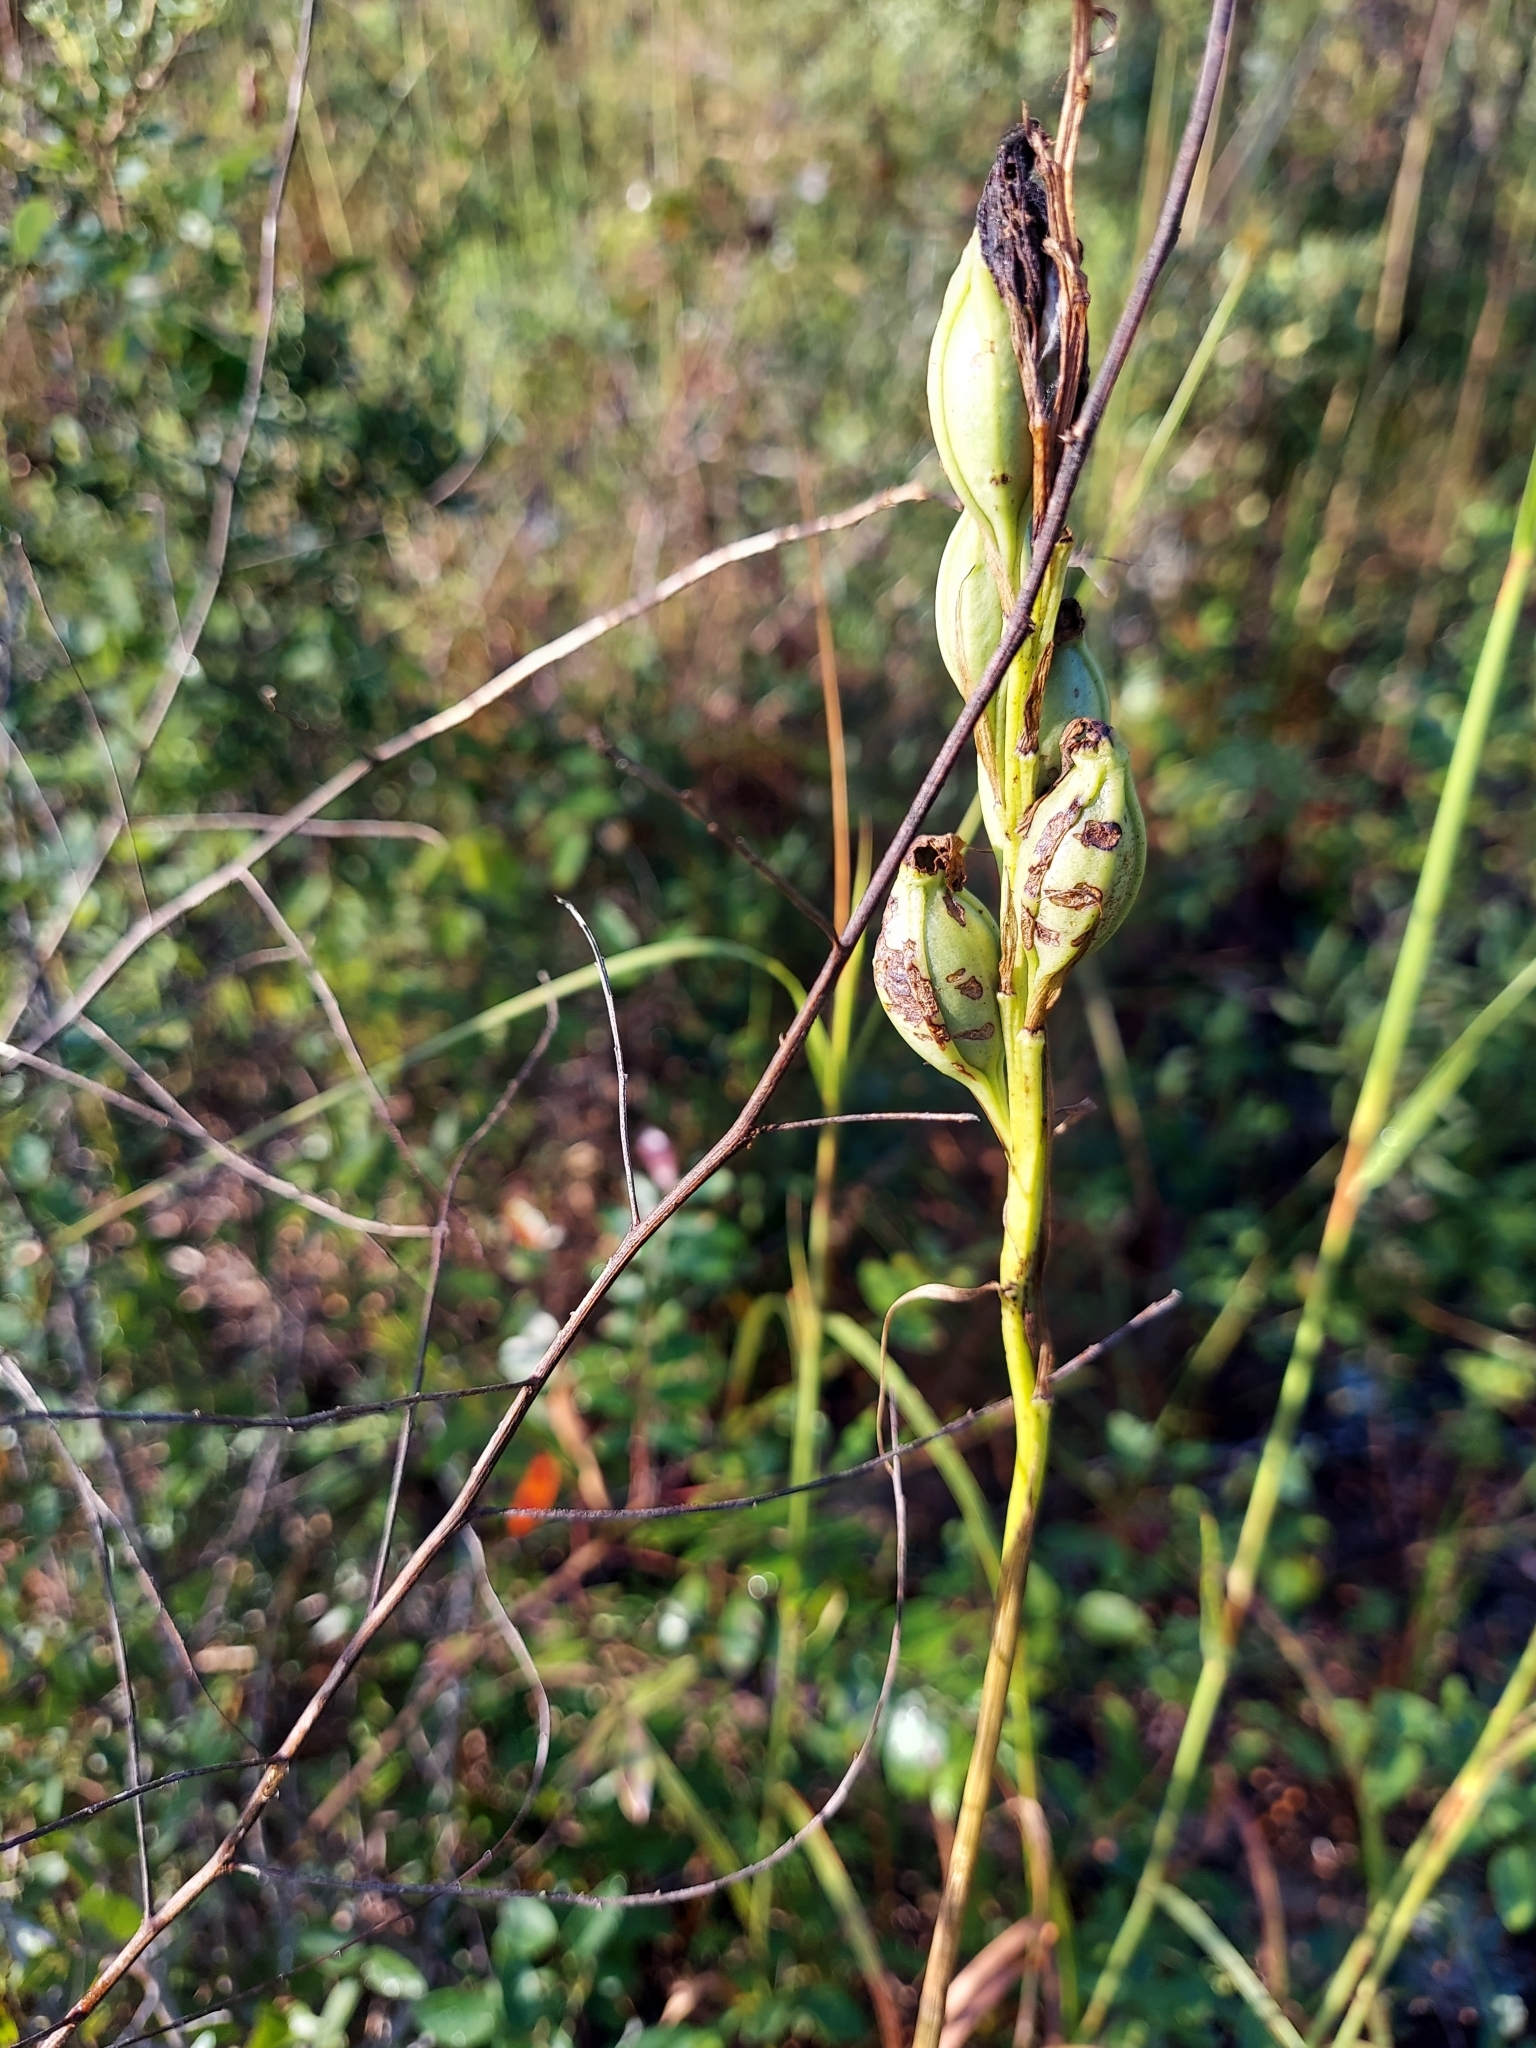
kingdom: Plantae
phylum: Tracheophyta
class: Liliopsida
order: Asparagales
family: Orchidaceae
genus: Eulophia
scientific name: Eulophia ecristata
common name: Giant orchid
